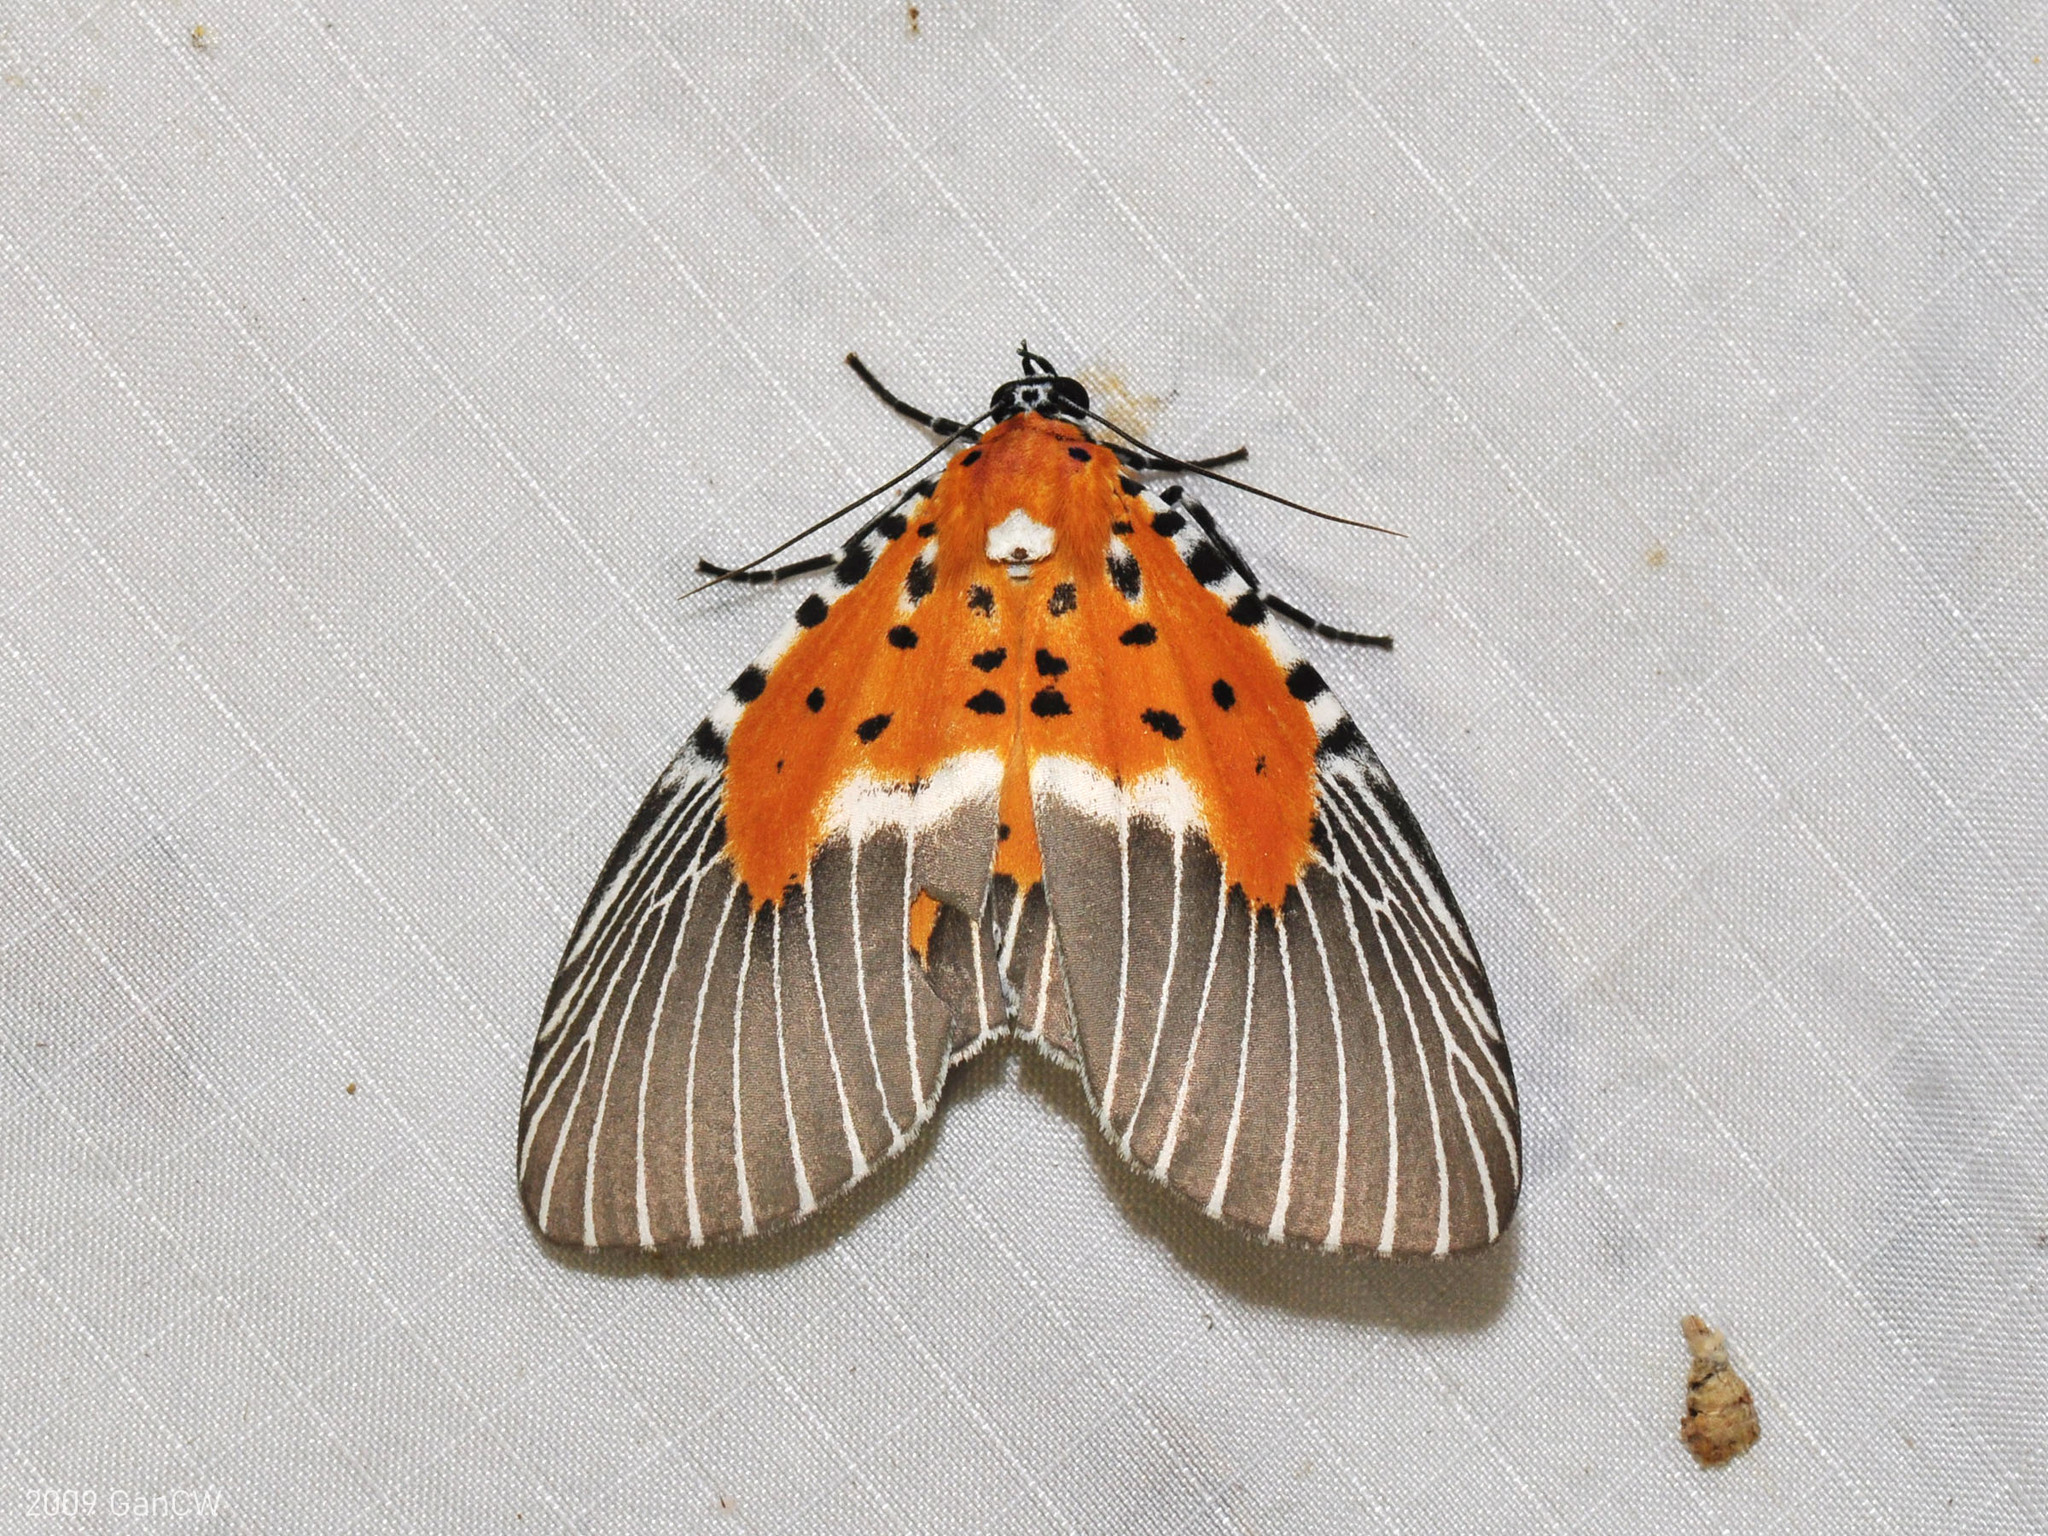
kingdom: Animalia
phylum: Arthropoda
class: Insecta
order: Lepidoptera
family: Erebidae
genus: Peridrome
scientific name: Peridrome subfascia
